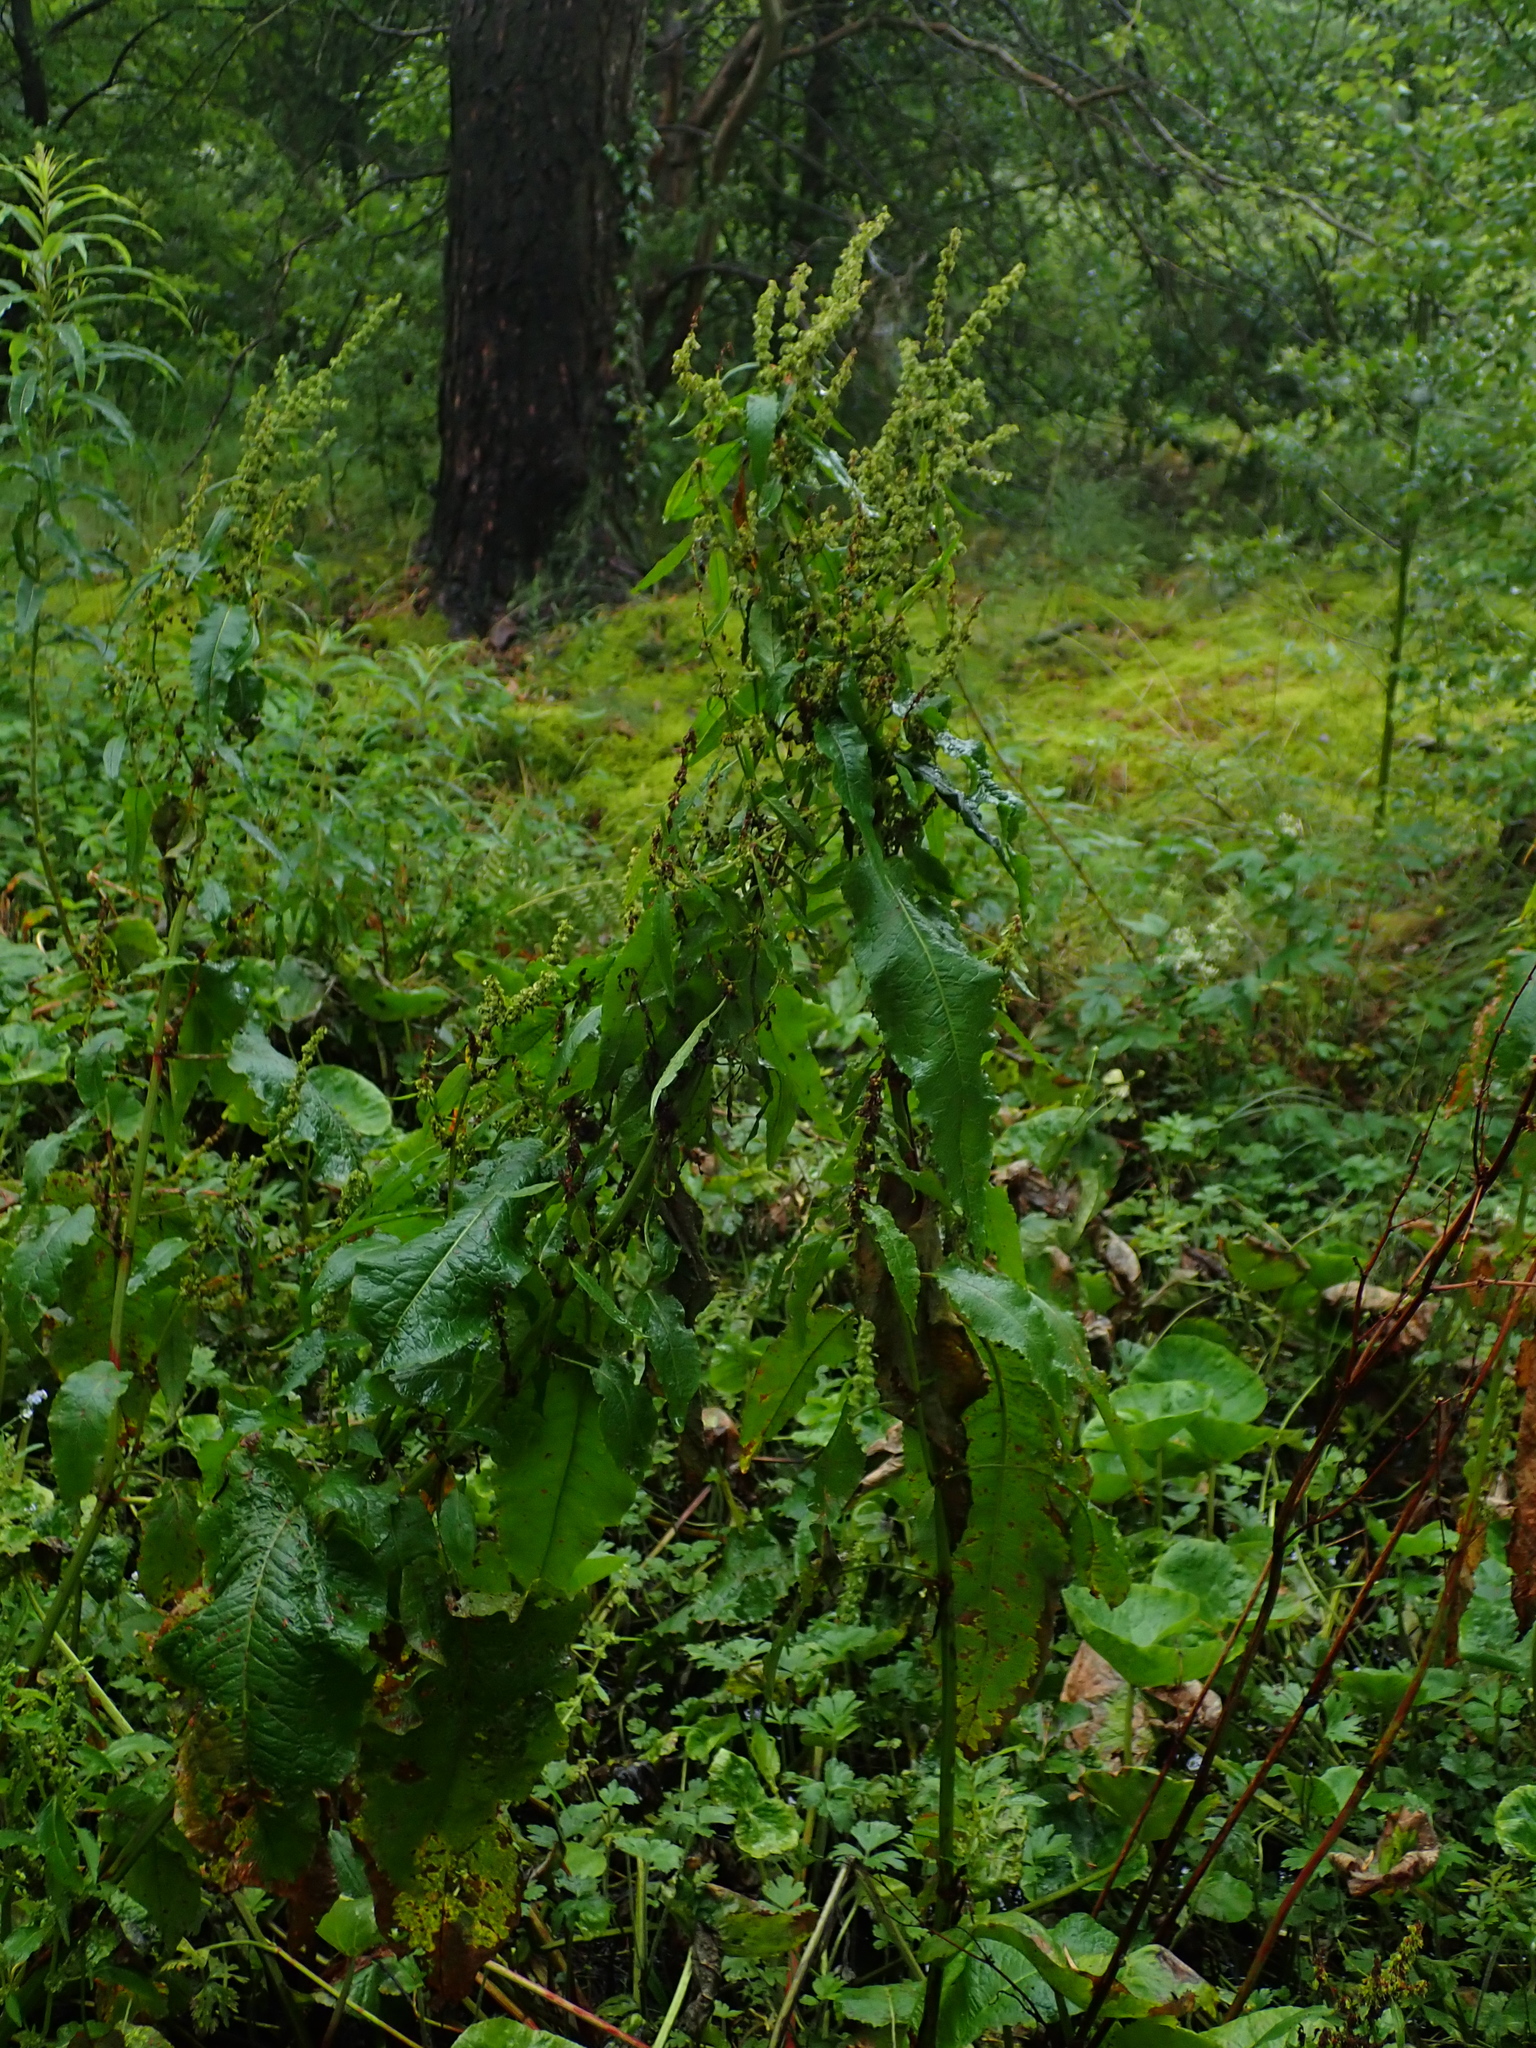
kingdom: Plantae
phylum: Tracheophyta
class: Magnoliopsida
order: Caryophyllales
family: Polygonaceae
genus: Rumex
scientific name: Rumex obtusifolius
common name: Bitter dock
